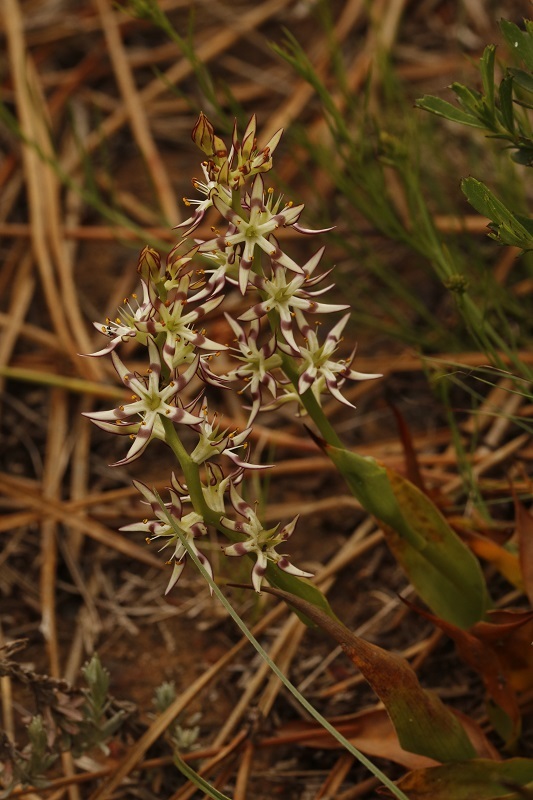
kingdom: Plantae
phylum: Tracheophyta
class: Liliopsida
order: Liliales
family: Colchicaceae
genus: Wurmbea
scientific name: Wurmbea variabilis
